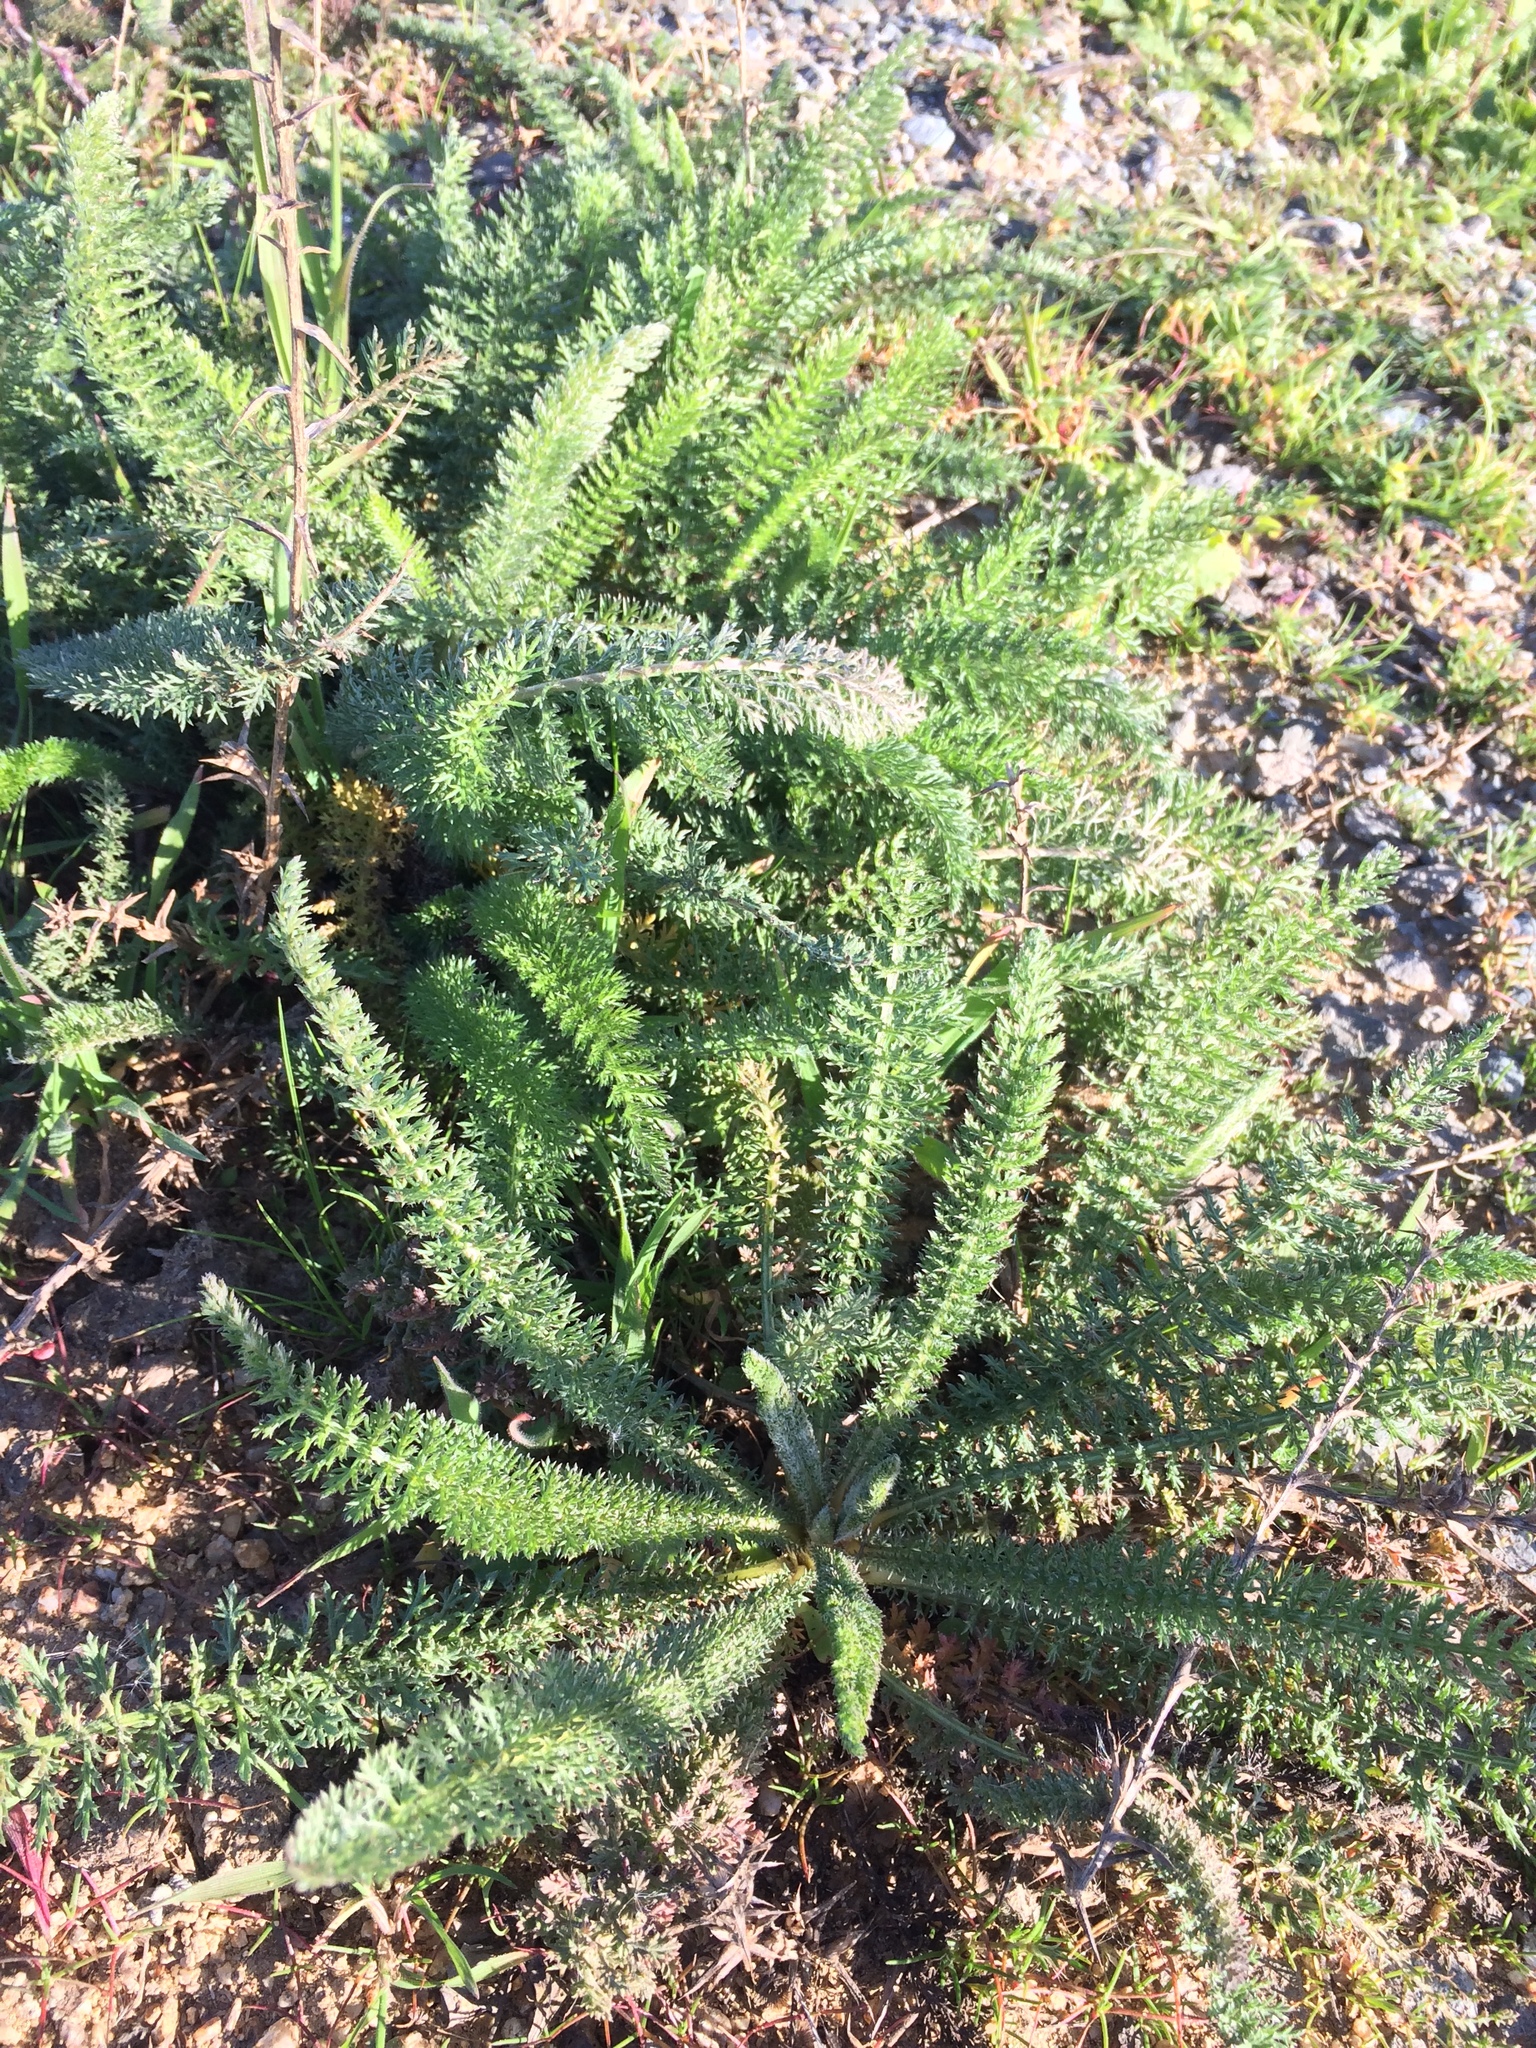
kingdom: Plantae
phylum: Tracheophyta
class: Magnoliopsida
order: Asterales
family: Asteraceae
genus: Achillea
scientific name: Achillea millefolium
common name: Yarrow
